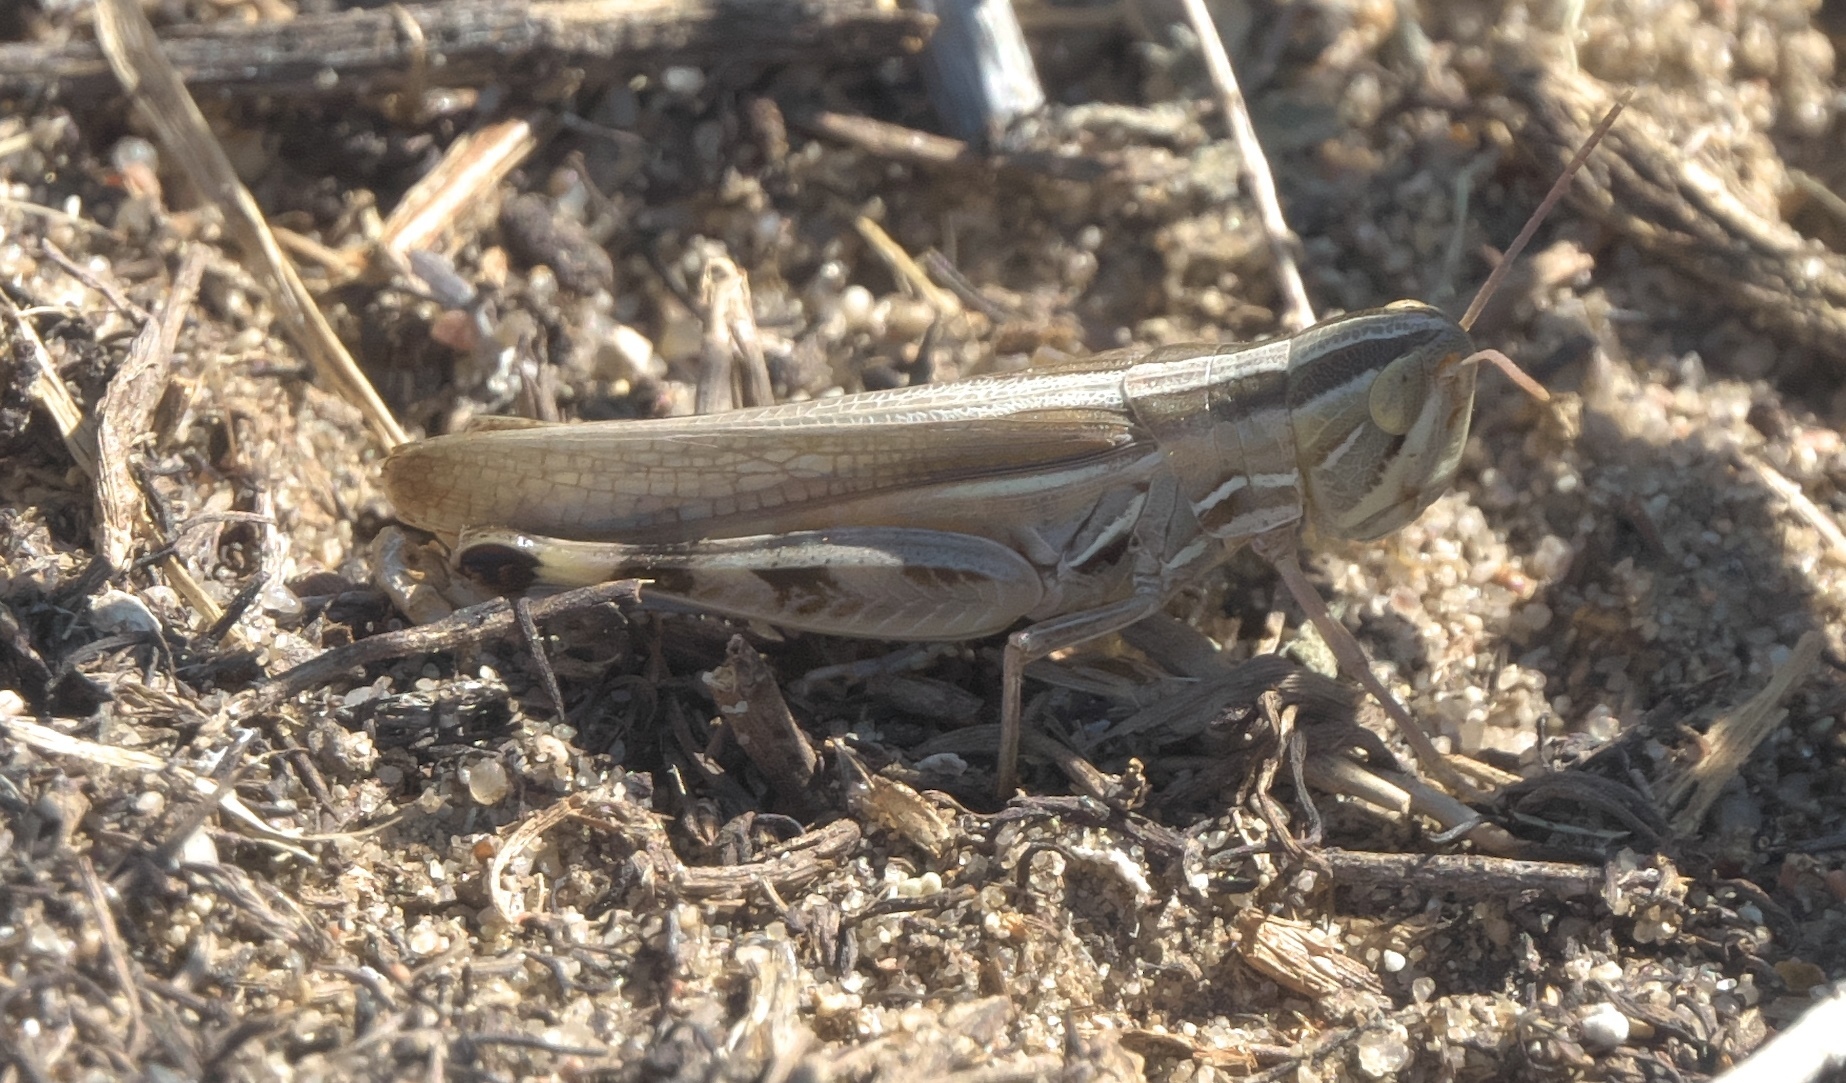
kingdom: Animalia
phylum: Arthropoda
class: Insecta
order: Orthoptera
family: Acrididae
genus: Amphitornus
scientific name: Amphitornus coloradus
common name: Striped grasshopper
